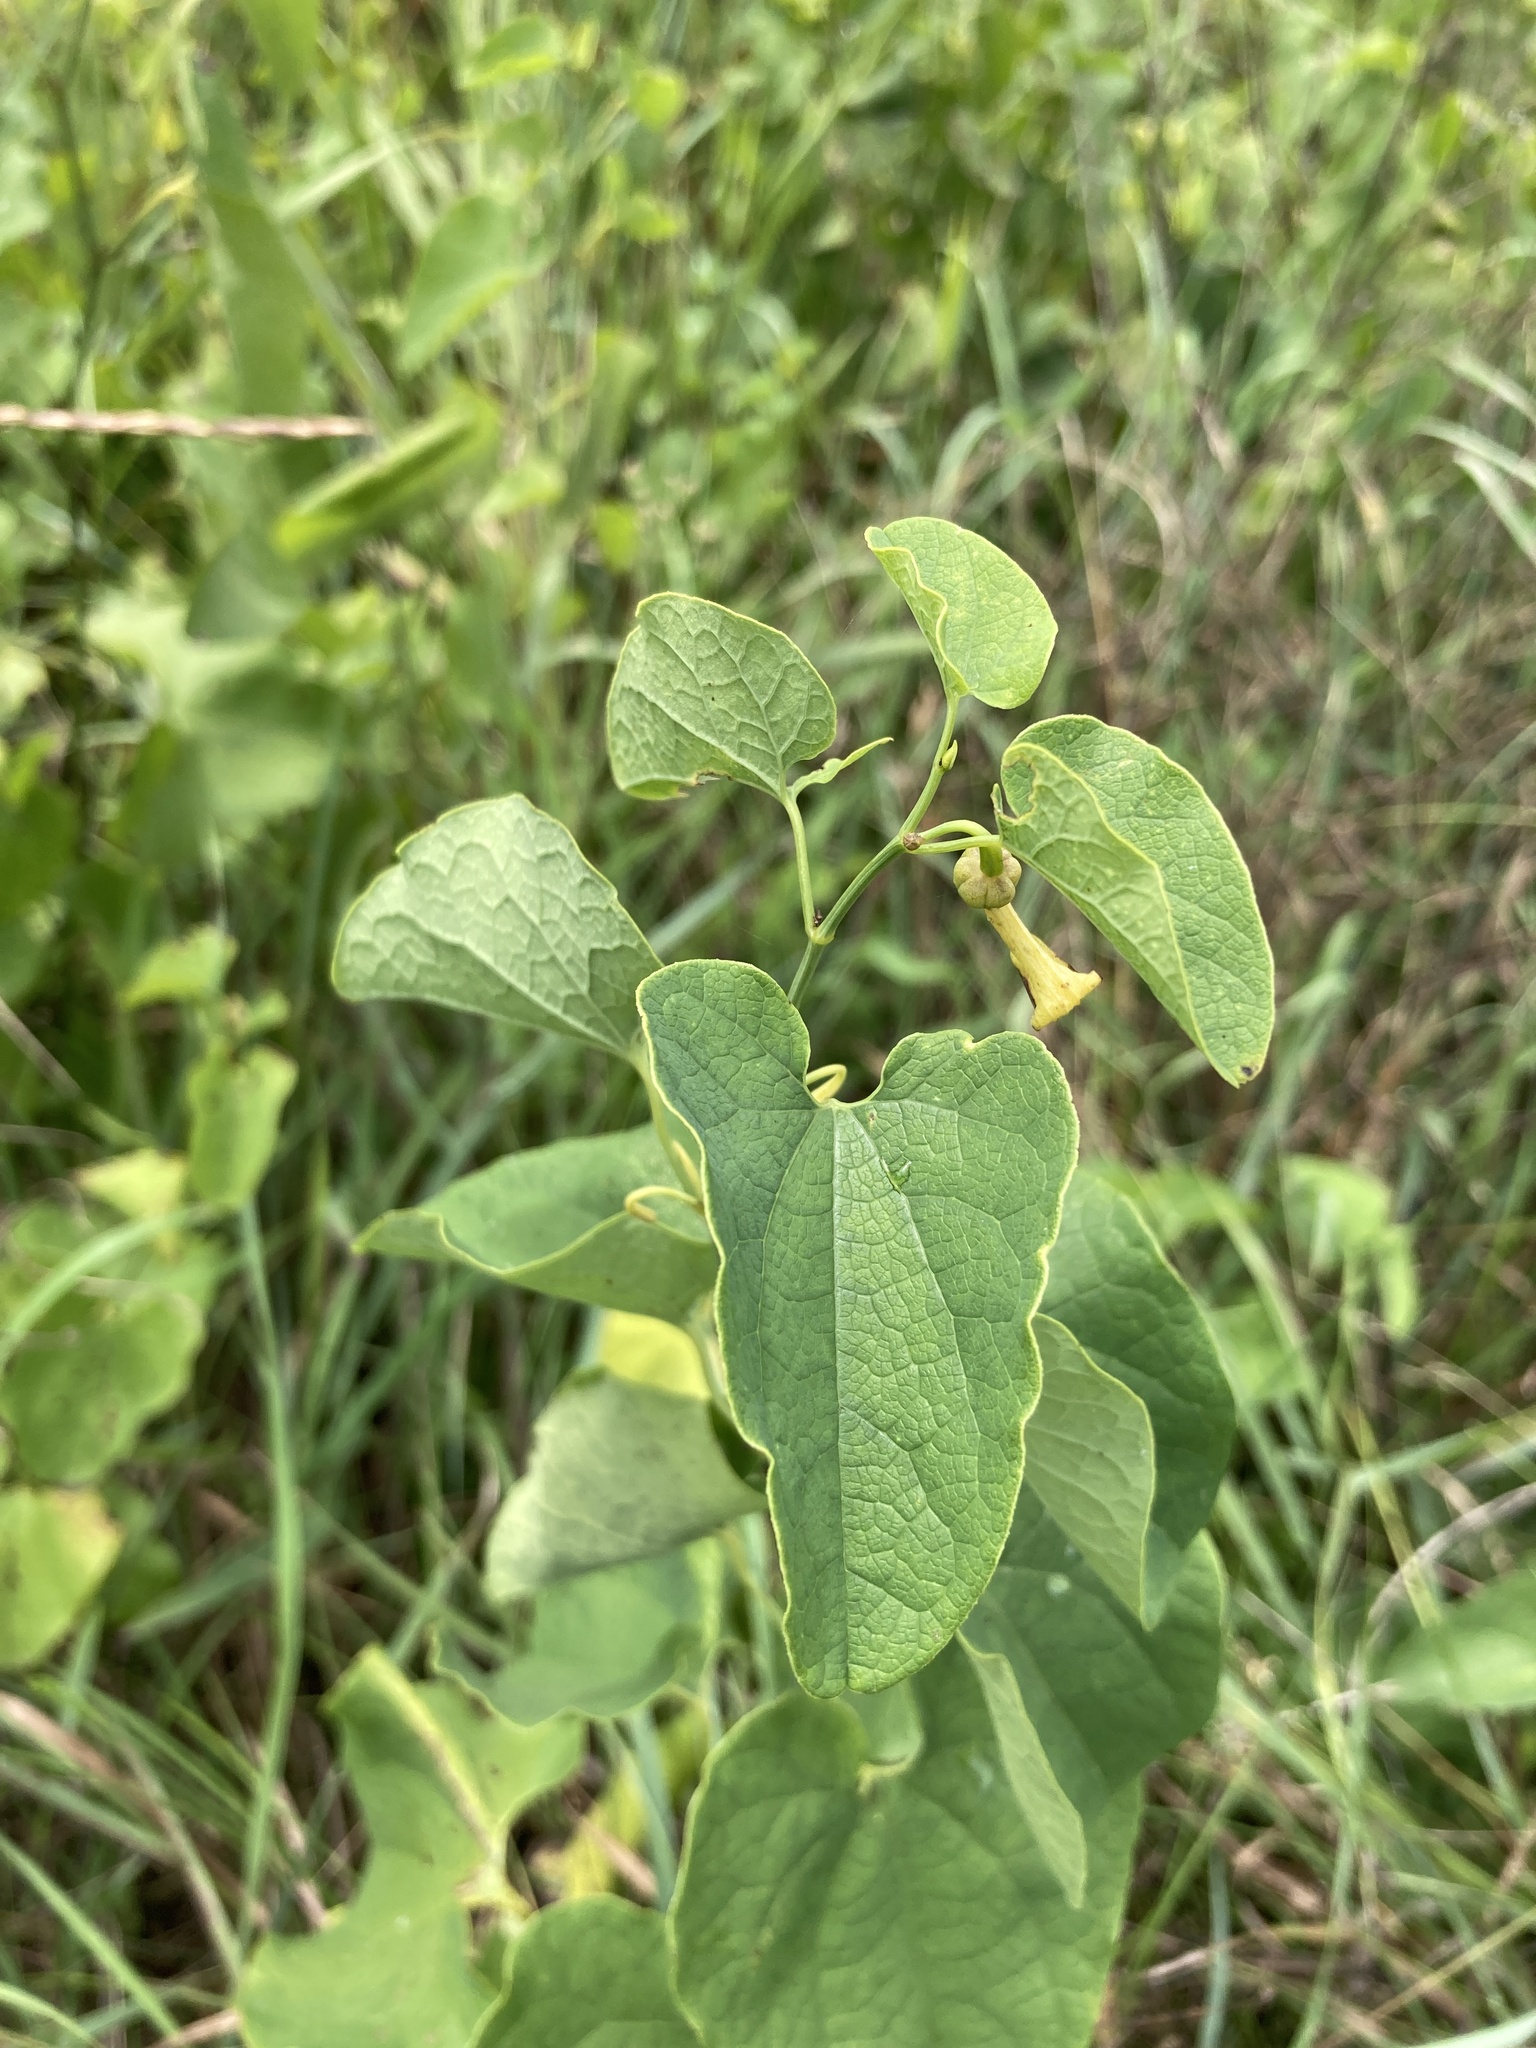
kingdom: Plantae
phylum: Tracheophyta
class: Magnoliopsida
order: Piperales
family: Aristolochiaceae
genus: Aristolochia
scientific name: Aristolochia clematitis
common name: Birthwort
